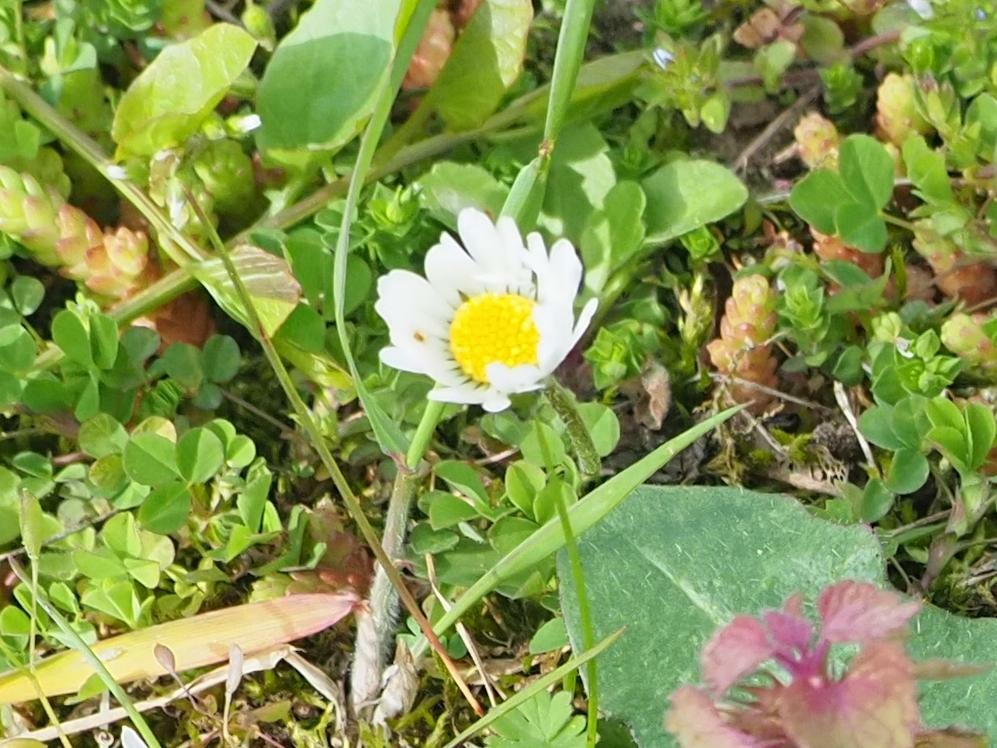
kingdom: Plantae
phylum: Tracheophyta
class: Magnoliopsida
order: Asterales
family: Asteraceae
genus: Bellis
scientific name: Bellis perennis
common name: Lawndaisy
